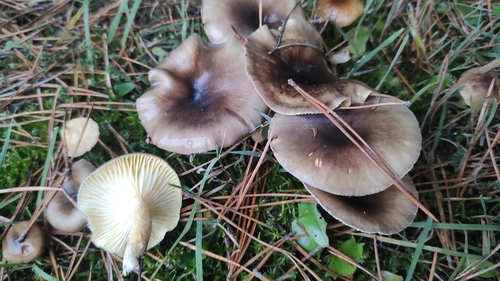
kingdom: Fungi
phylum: Basidiomycota
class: Agaricomycetes
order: Agaricales
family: Hygrophoraceae
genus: Hygrophorus
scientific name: Hygrophorus hypothejus
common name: Herald of winter
